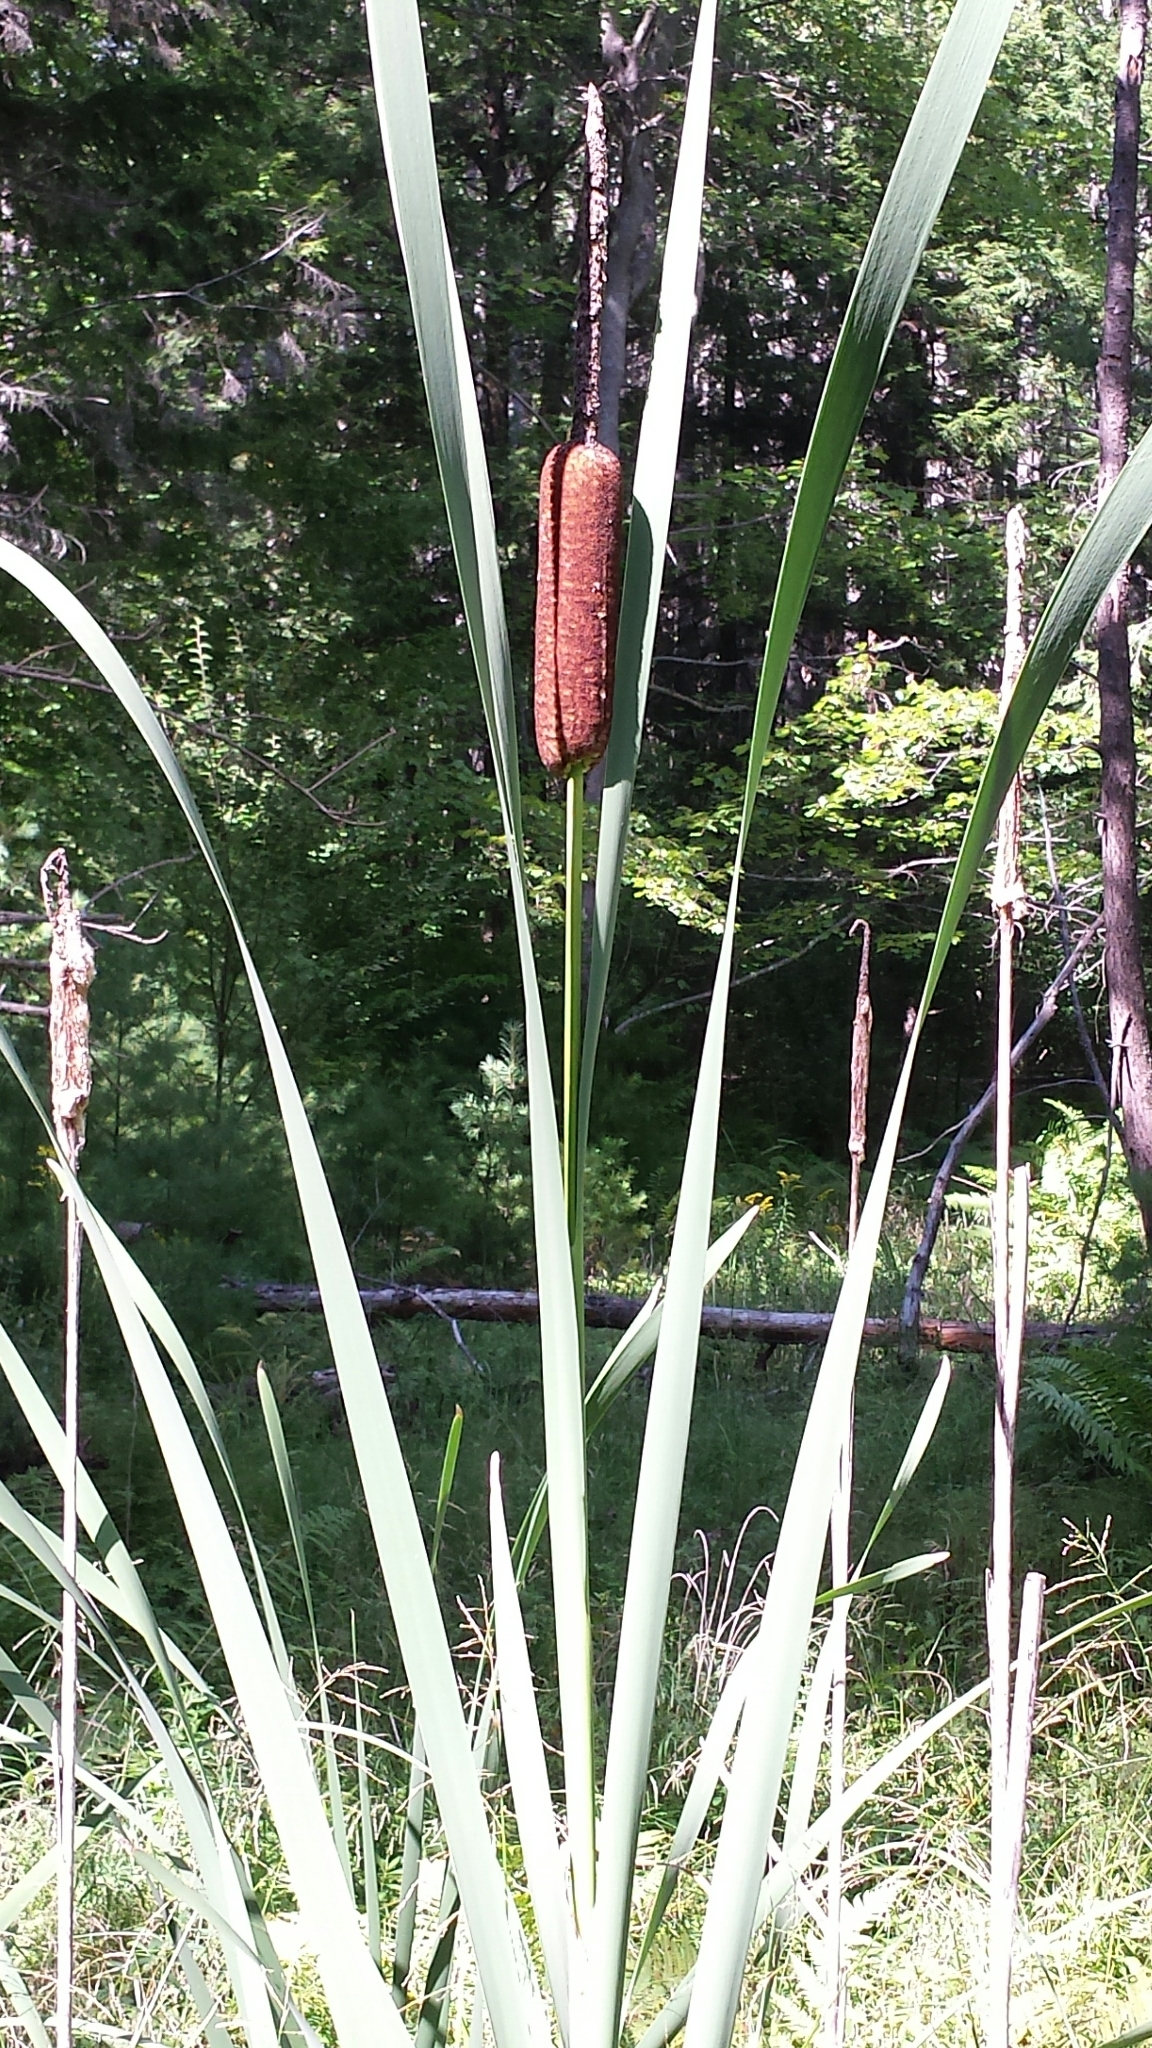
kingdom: Plantae
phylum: Tracheophyta
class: Liliopsida
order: Poales
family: Typhaceae
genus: Typha
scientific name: Typha latifolia
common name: Broadleaf cattail
